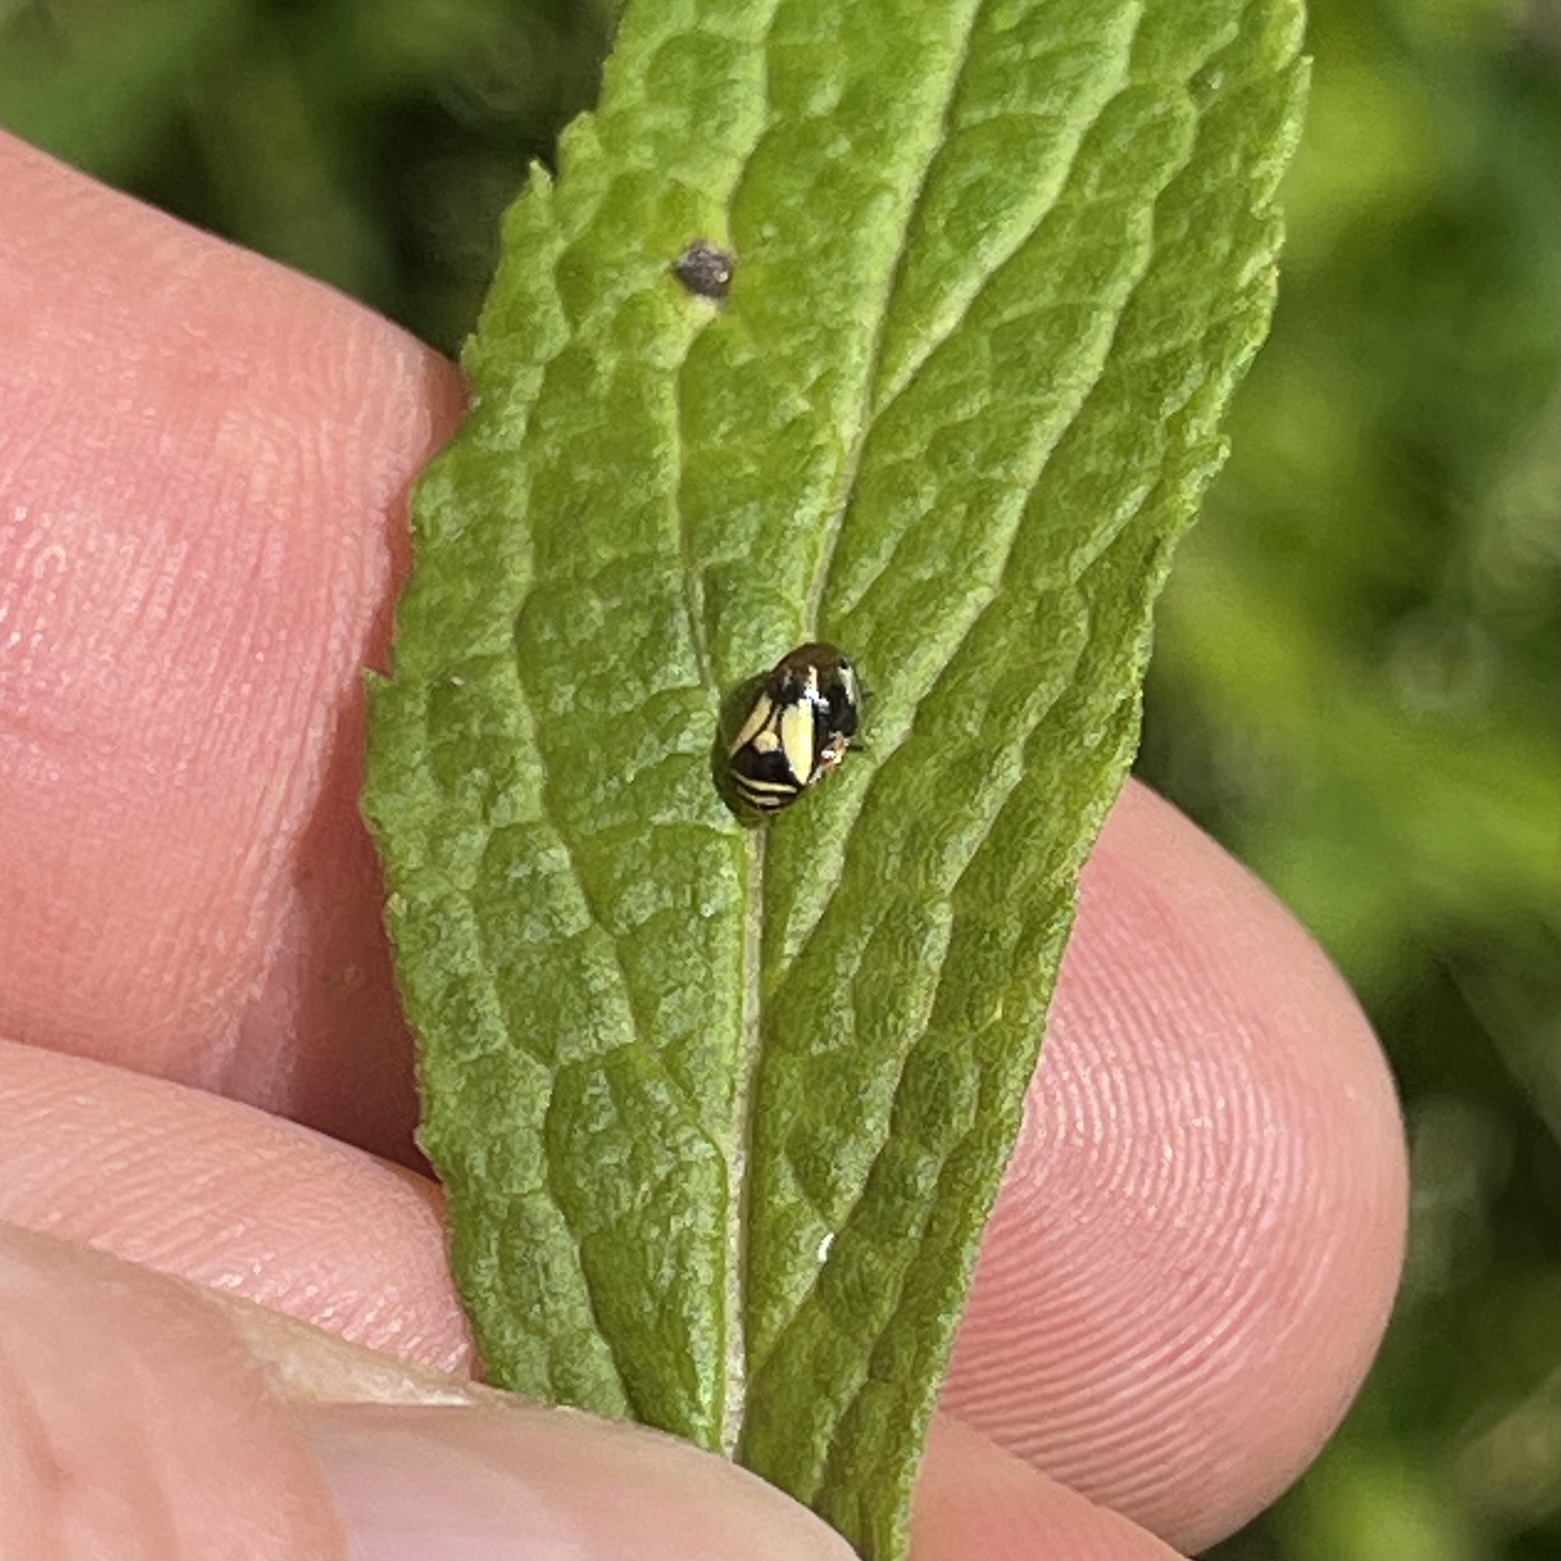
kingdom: Animalia
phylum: Arthropoda
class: Insecta
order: Hemiptera
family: Clastopteridae
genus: Clastoptera
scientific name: Clastoptera proteus
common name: Dogwood spittlebug
